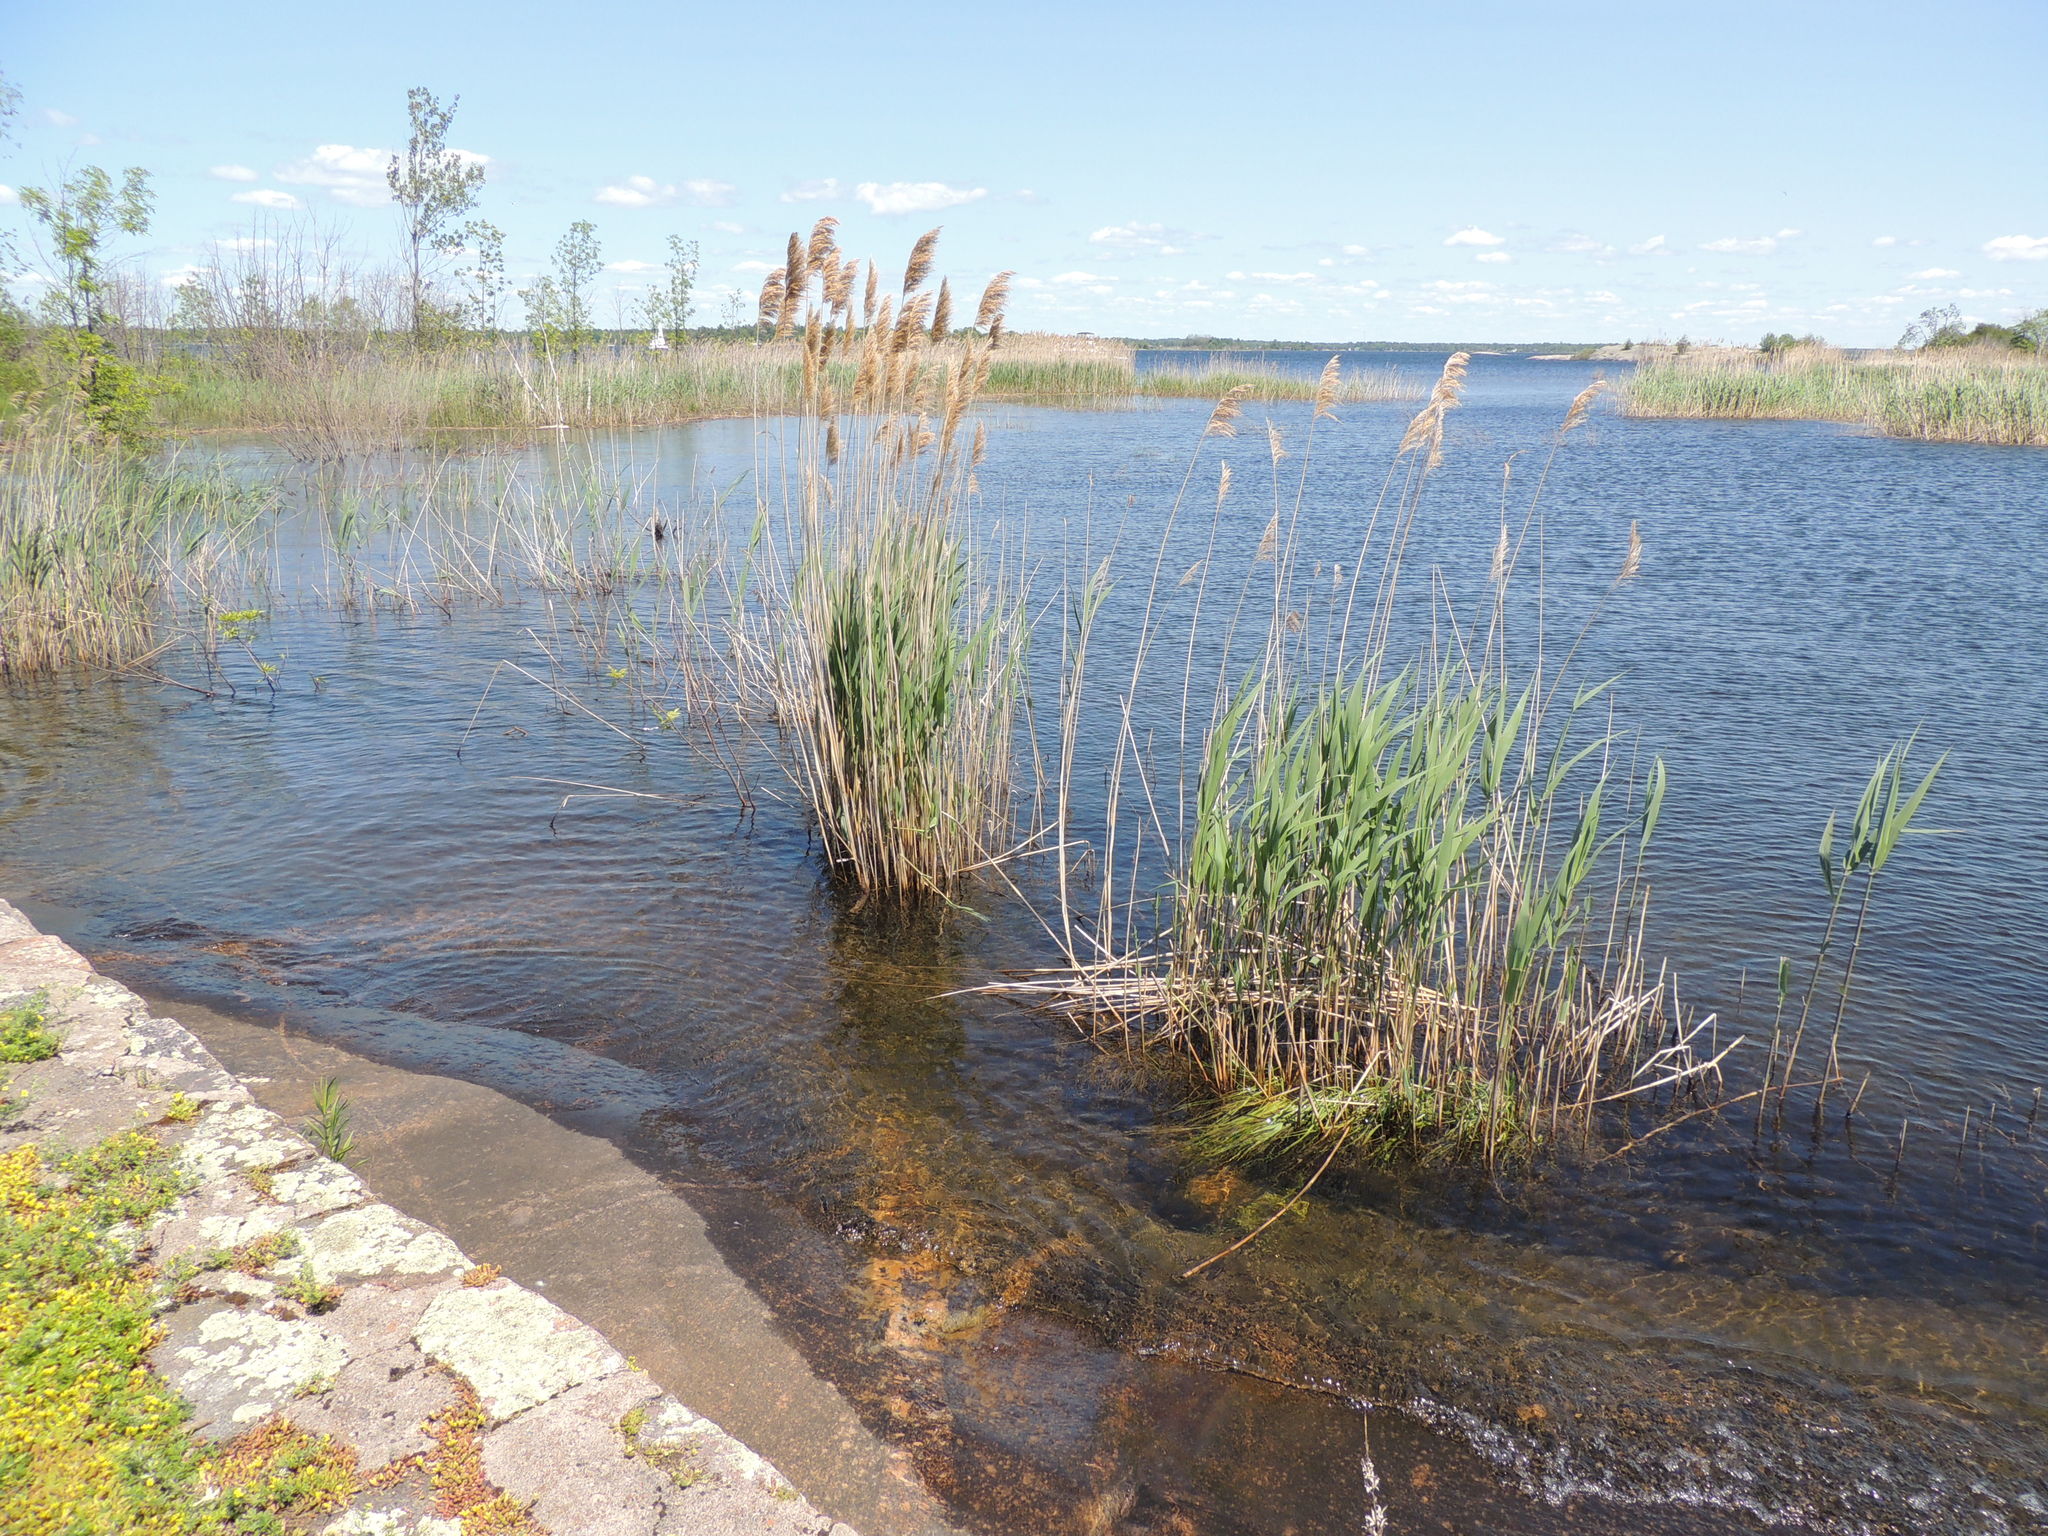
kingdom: Plantae
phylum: Tracheophyta
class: Liliopsida
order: Poales
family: Poaceae
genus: Phragmites
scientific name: Phragmites australis
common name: Common reed
